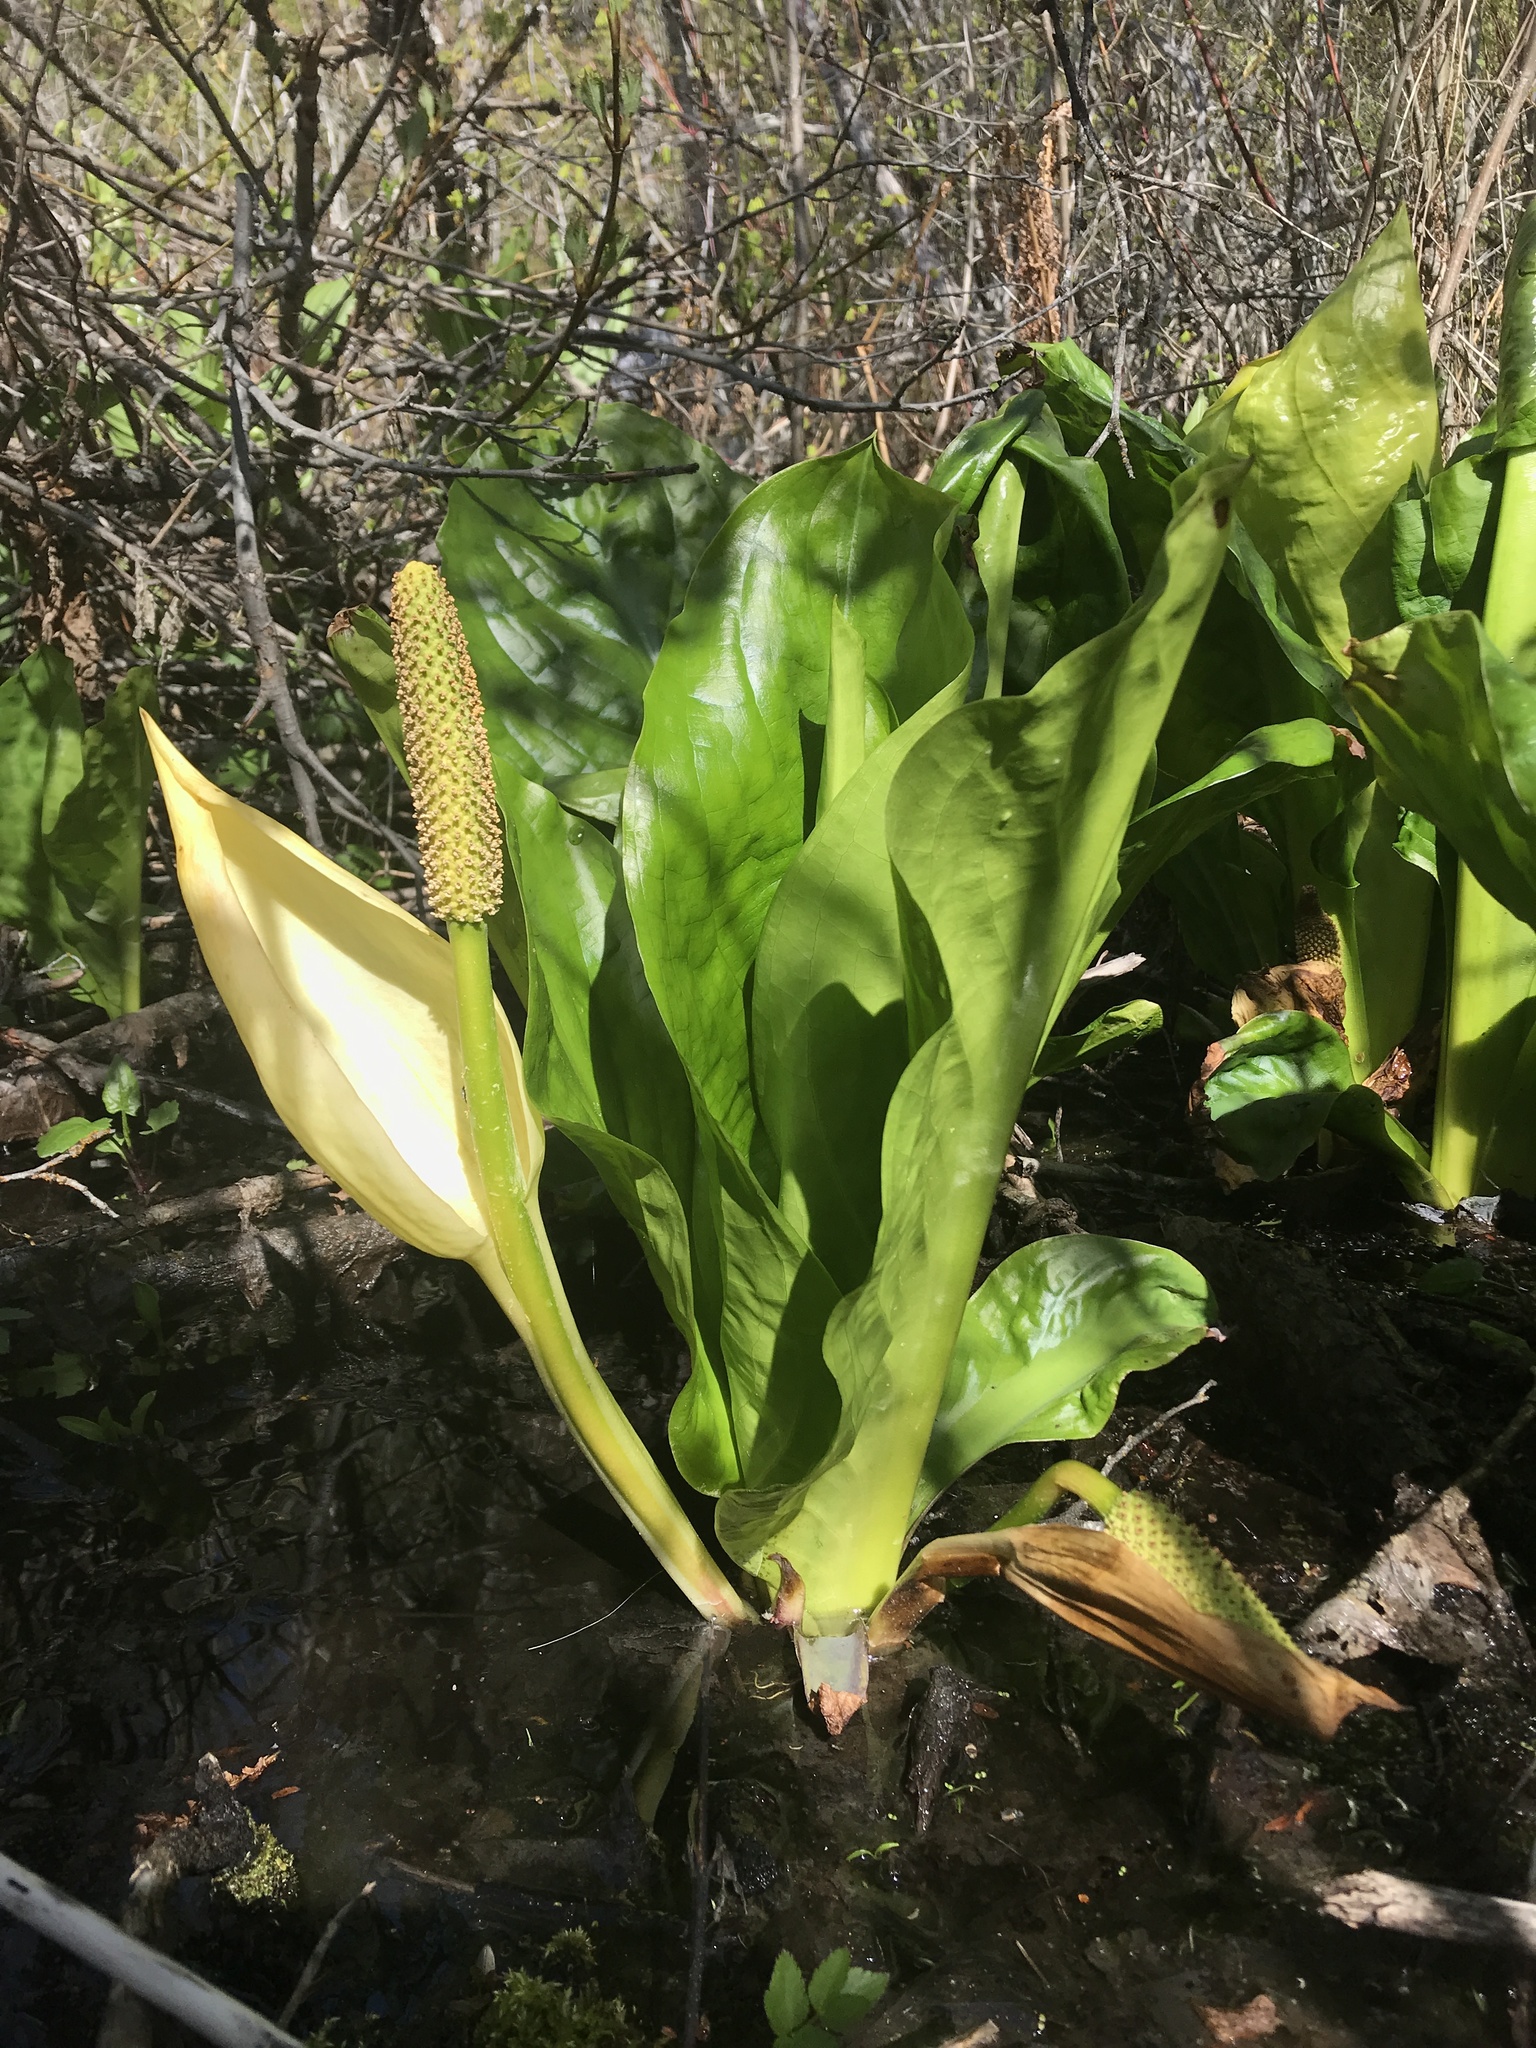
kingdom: Plantae
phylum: Tracheophyta
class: Liliopsida
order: Alismatales
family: Araceae
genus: Lysichiton
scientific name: Lysichiton americanus
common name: American skunk cabbage
